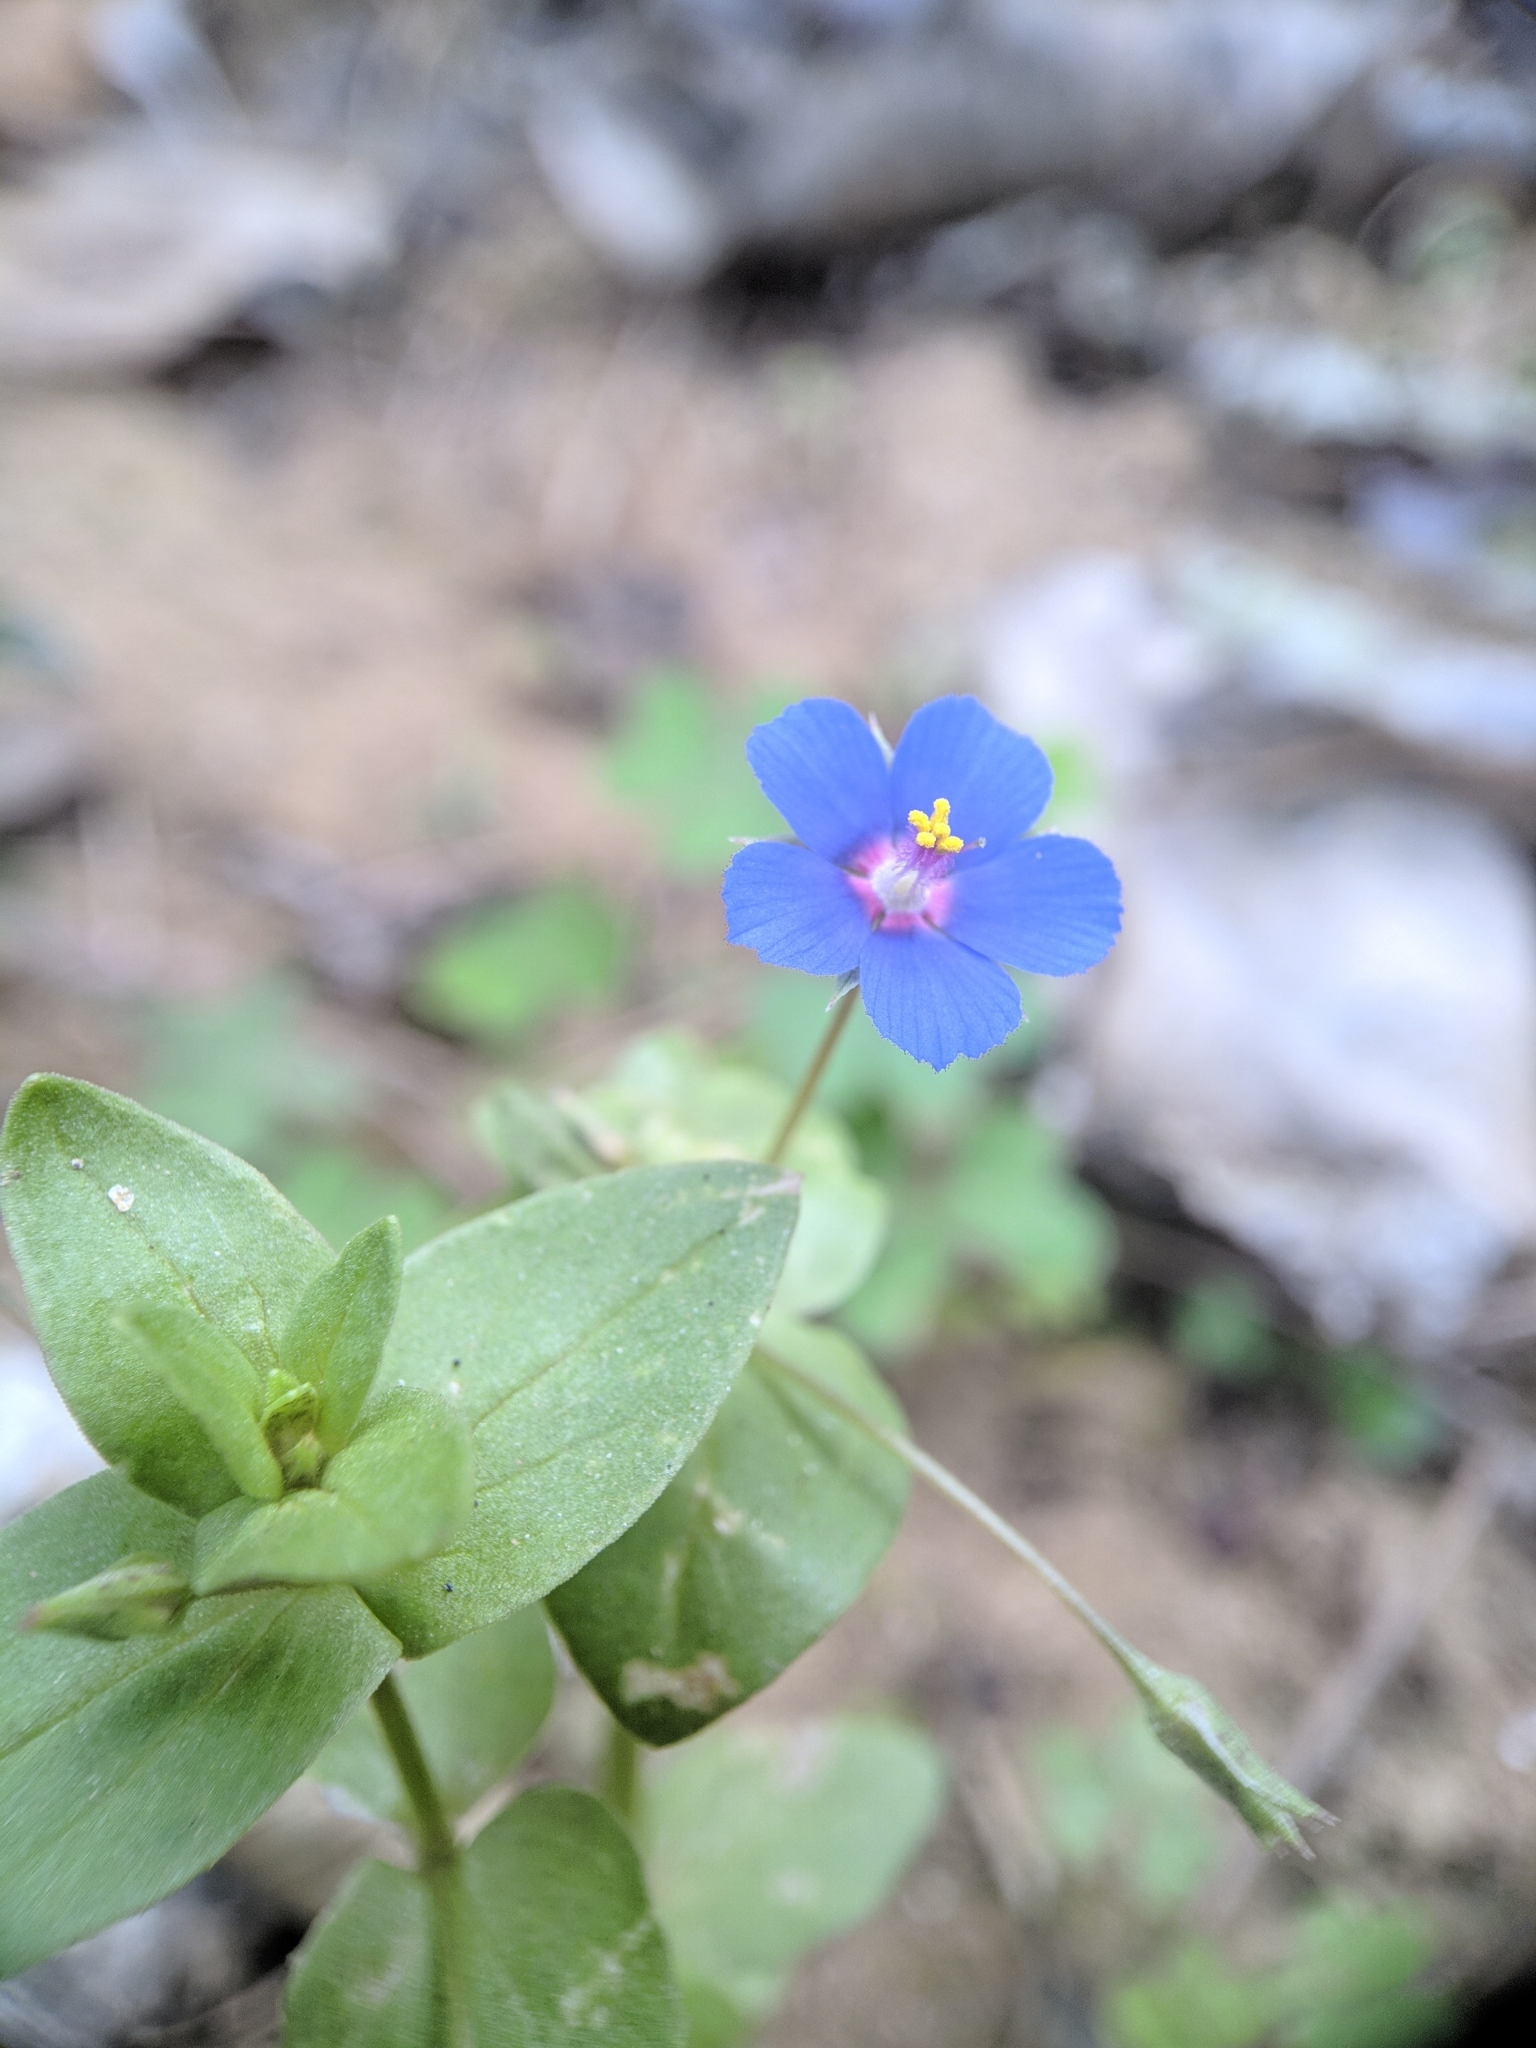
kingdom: Plantae
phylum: Tracheophyta
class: Magnoliopsida
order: Ericales
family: Primulaceae
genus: Lysimachia
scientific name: Lysimachia arvensis
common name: Scarlet pimpernel
